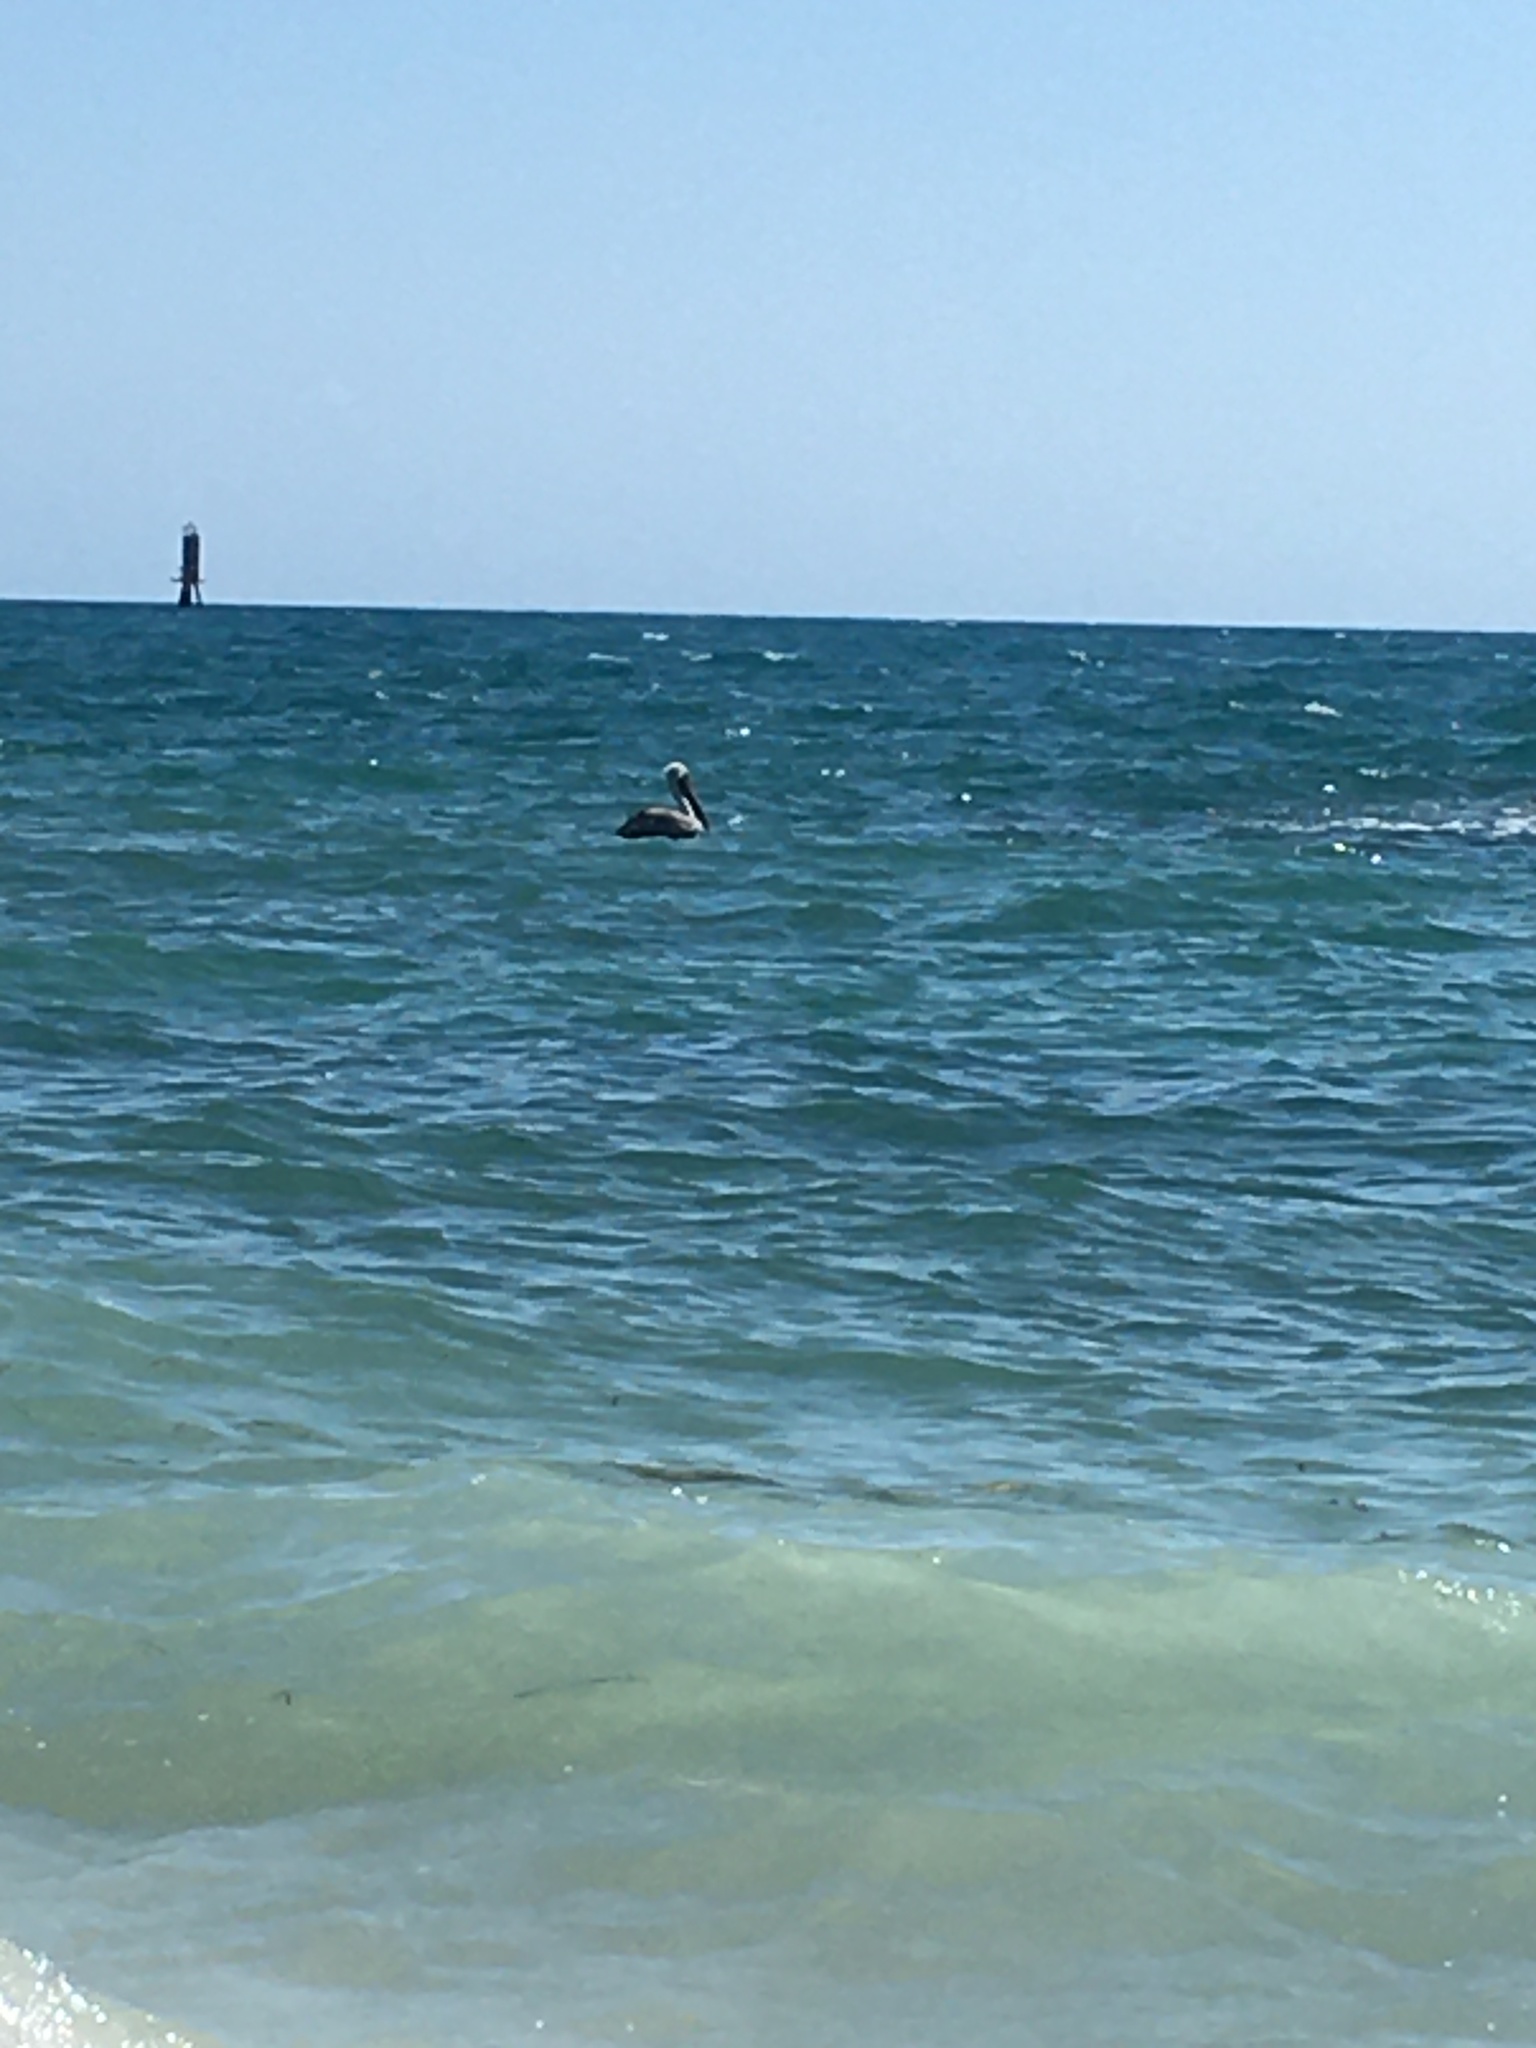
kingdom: Animalia
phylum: Chordata
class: Aves
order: Pelecaniformes
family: Pelecanidae
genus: Pelecanus
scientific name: Pelecanus occidentalis
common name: Brown pelican
